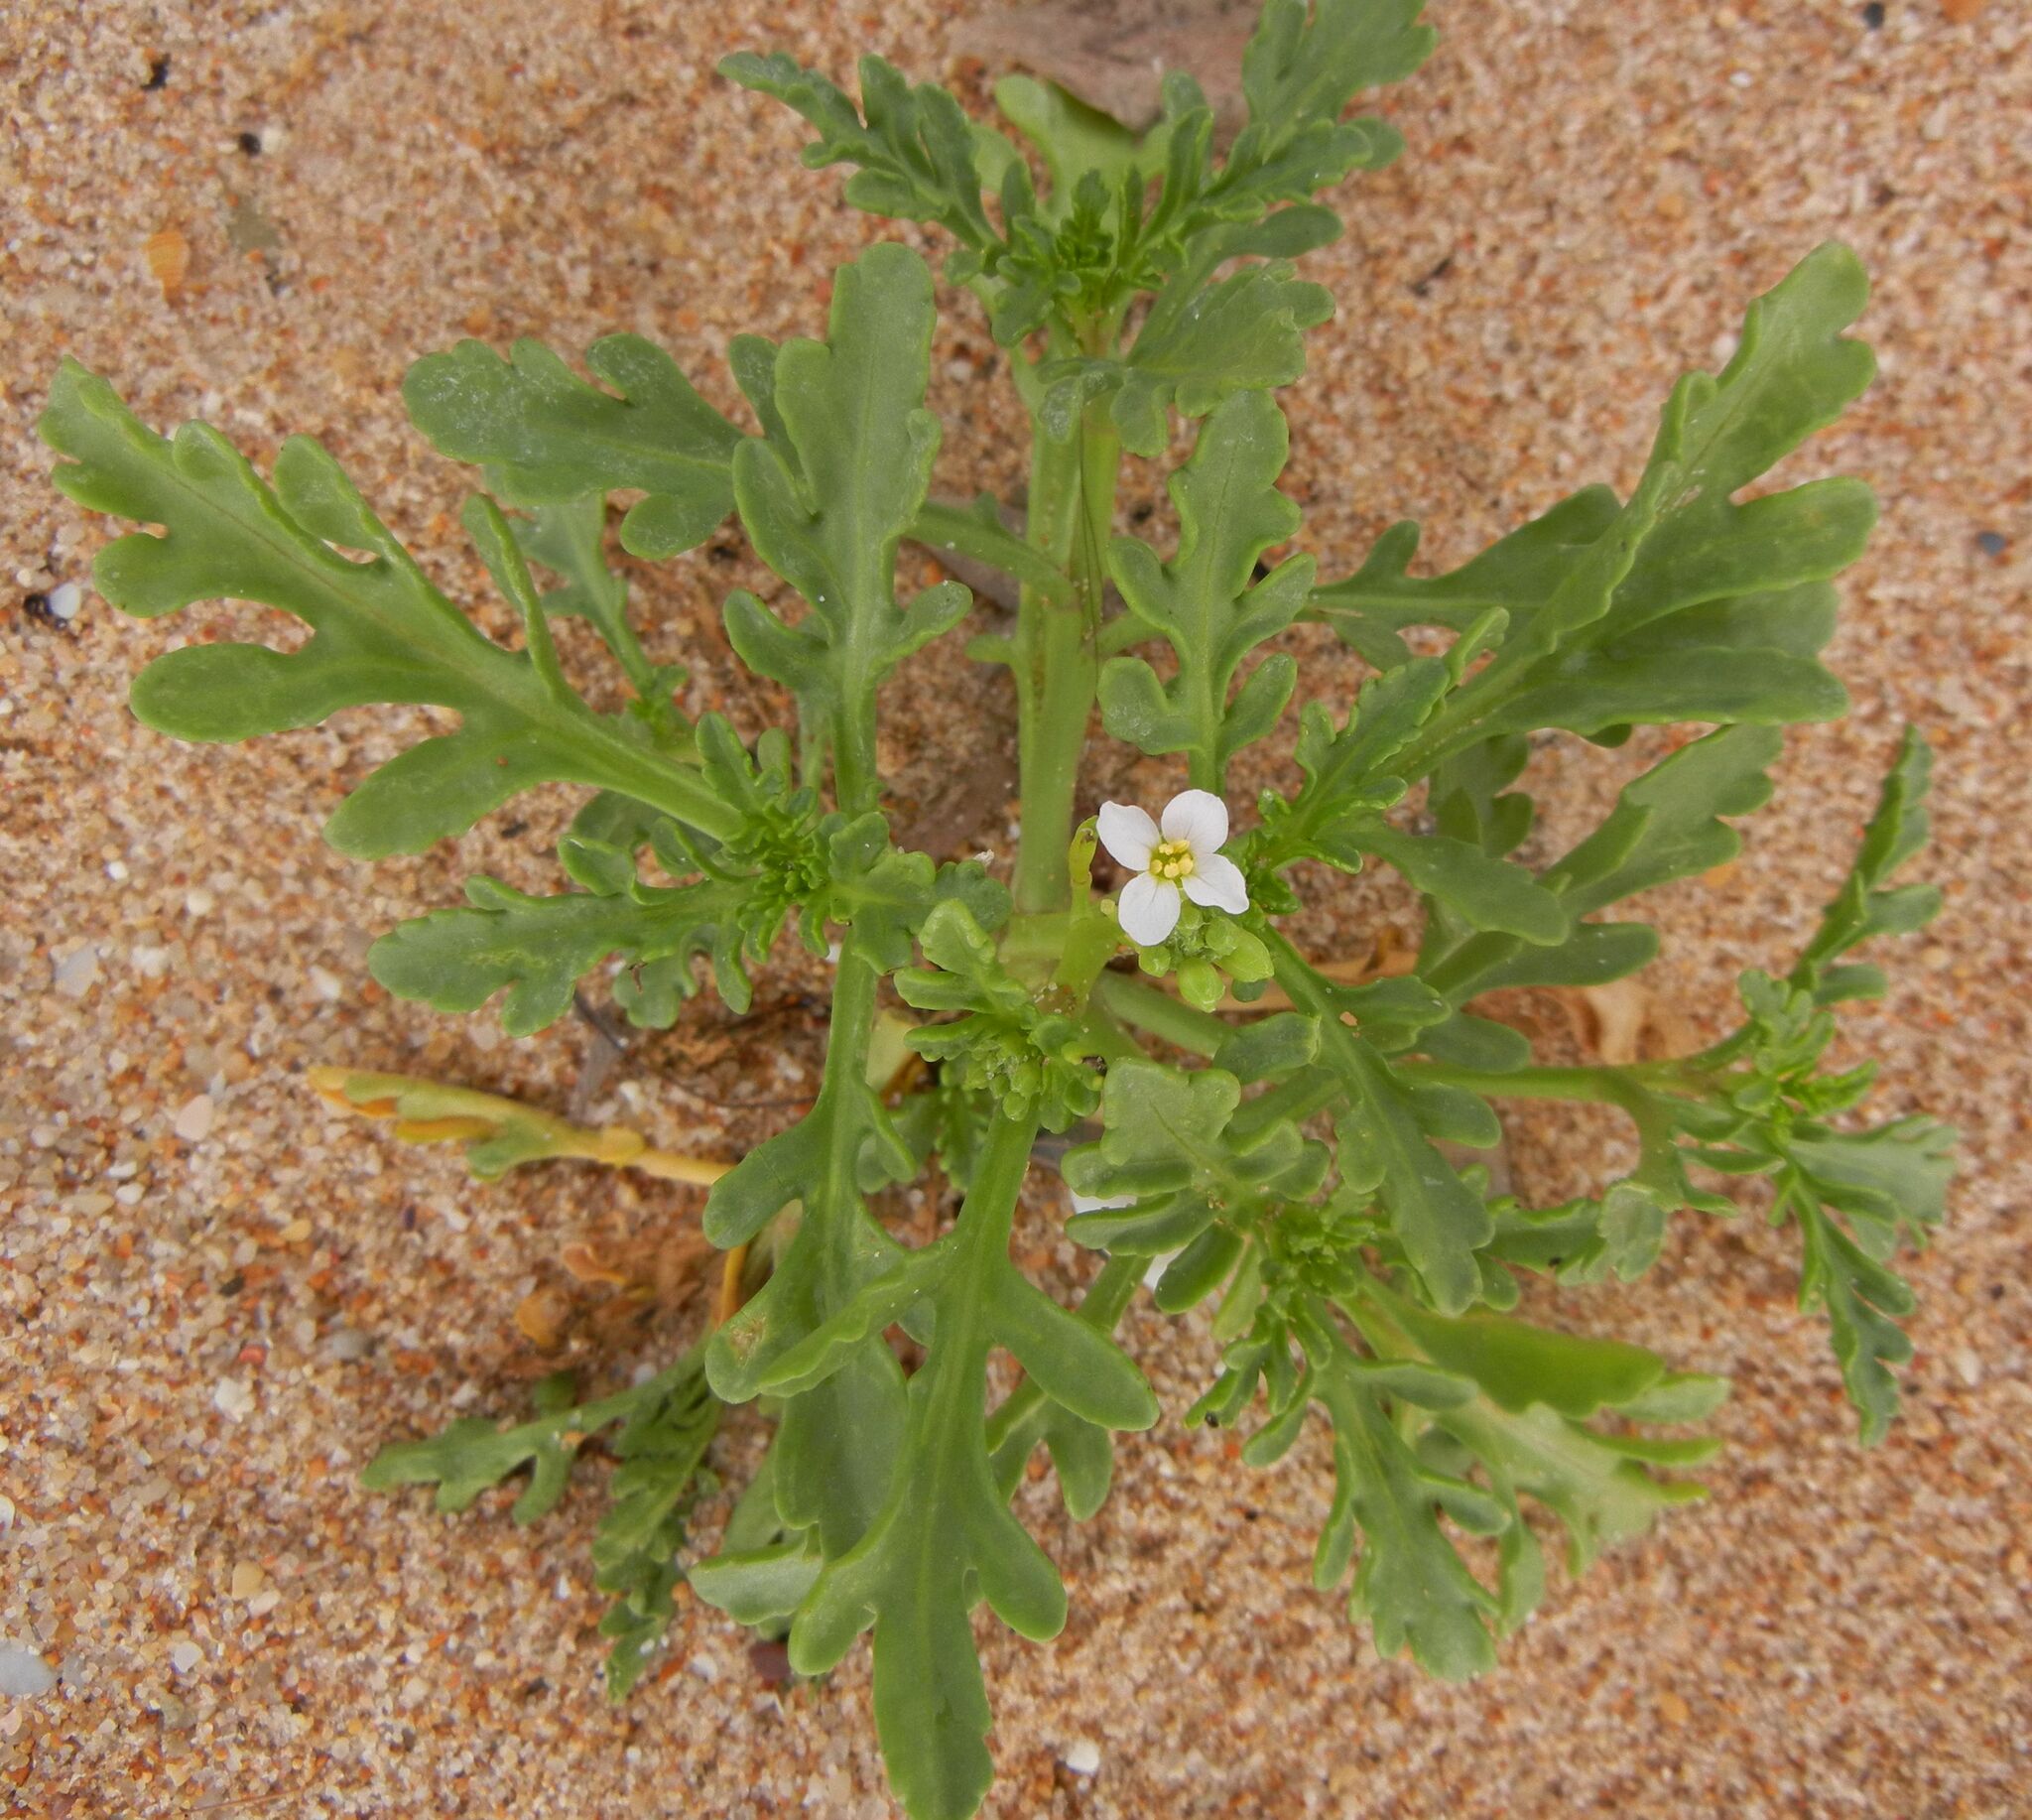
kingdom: Plantae
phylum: Tracheophyta
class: Magnoliopsida
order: Brassicales
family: Brassicaceae
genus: Cakile
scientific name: Cakile maritima
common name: Sea rocket
